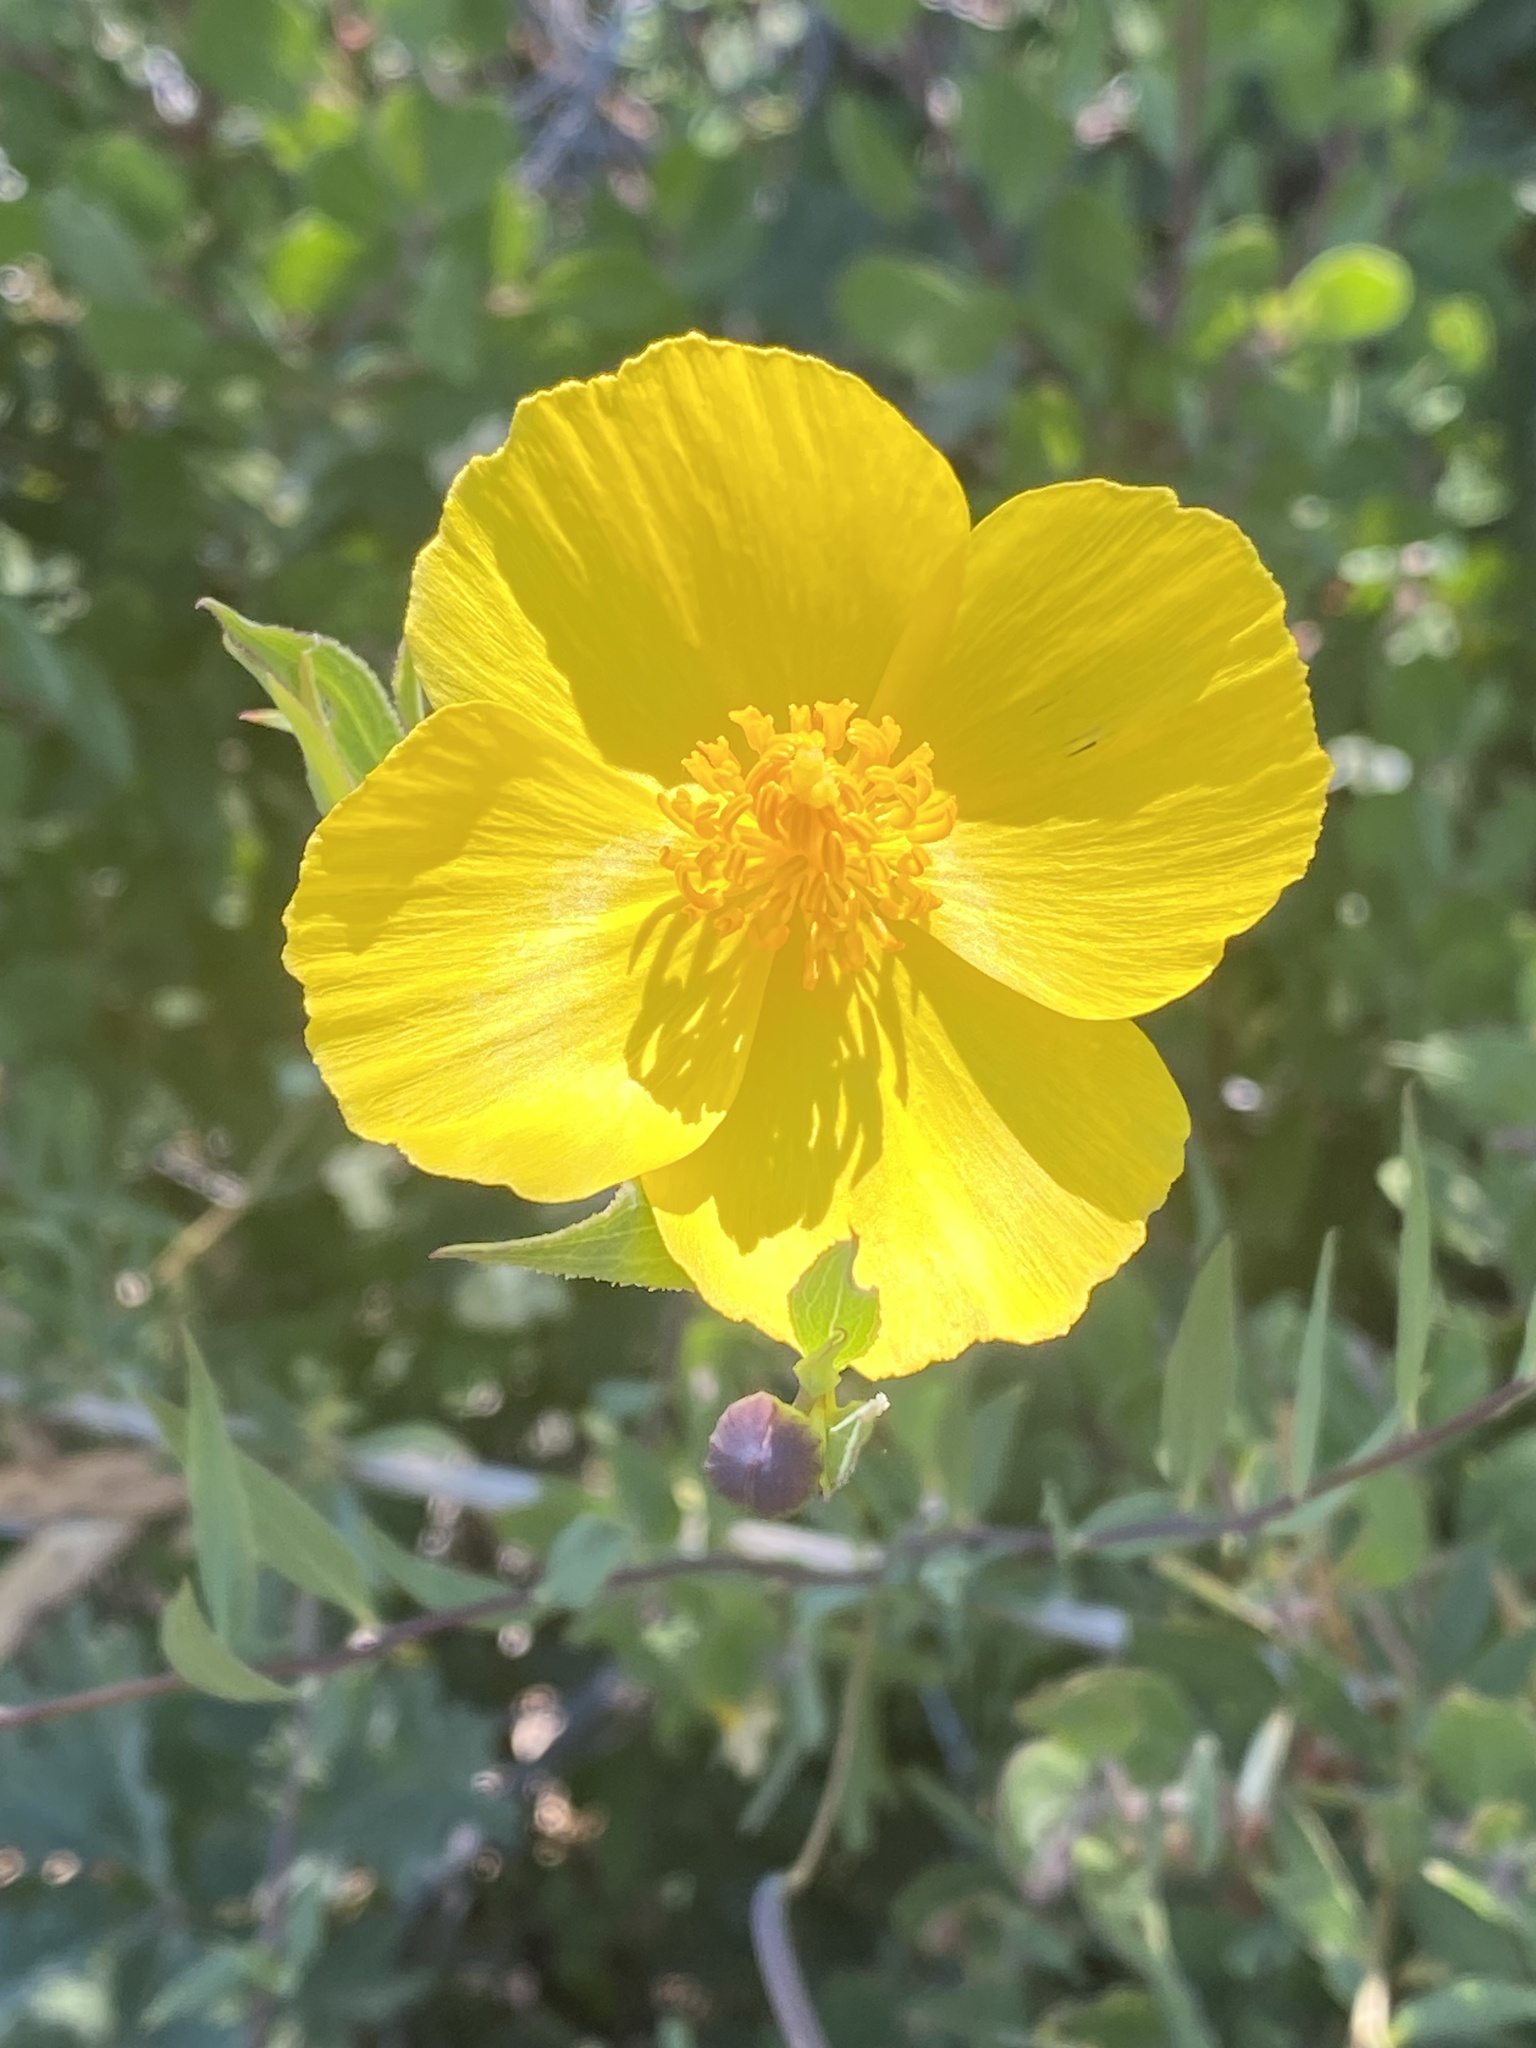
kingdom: Plantae
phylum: Tracheophyta
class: Magnoliopsida
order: Ranunculales
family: Papaveraceae
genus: Dendromecon
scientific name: Dendromecon rigida
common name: Tree poppy
